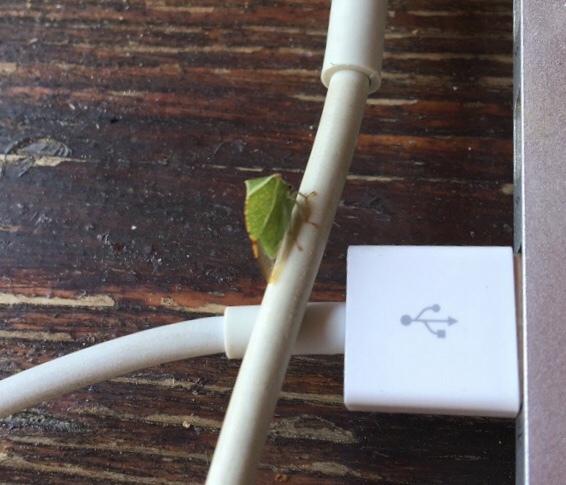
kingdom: Animalia
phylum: Arthropoda
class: Insecta
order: Hemiptera
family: Membracidae
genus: Stictocephala
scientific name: Stictocephala bisonia
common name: American buffalo treehopper
